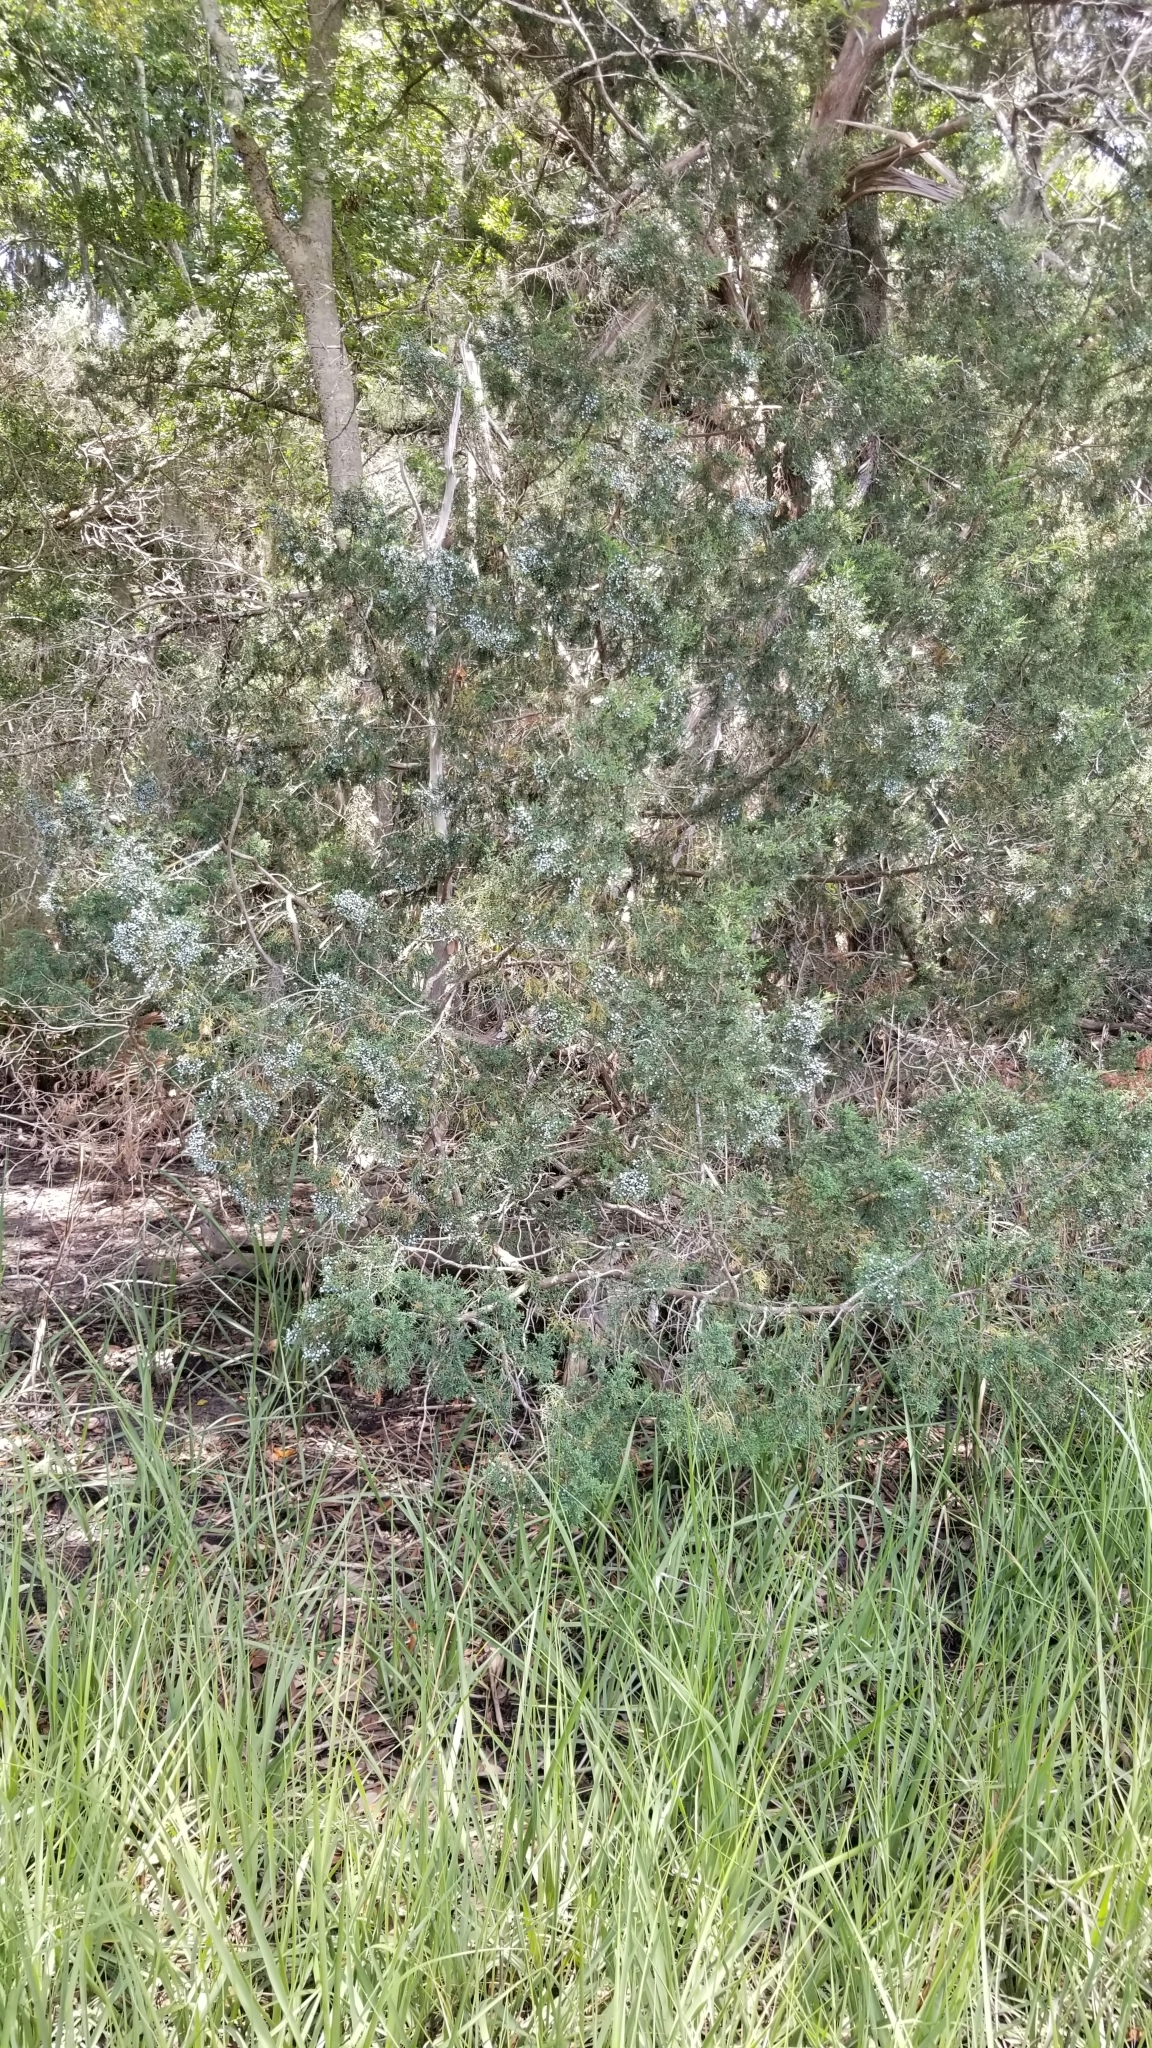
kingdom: Plantae
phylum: Tracheophyta
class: Pinopsida
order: Pinales
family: Cupressaceae
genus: Juniperus
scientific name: Juniperus virginiana
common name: Red juniper
